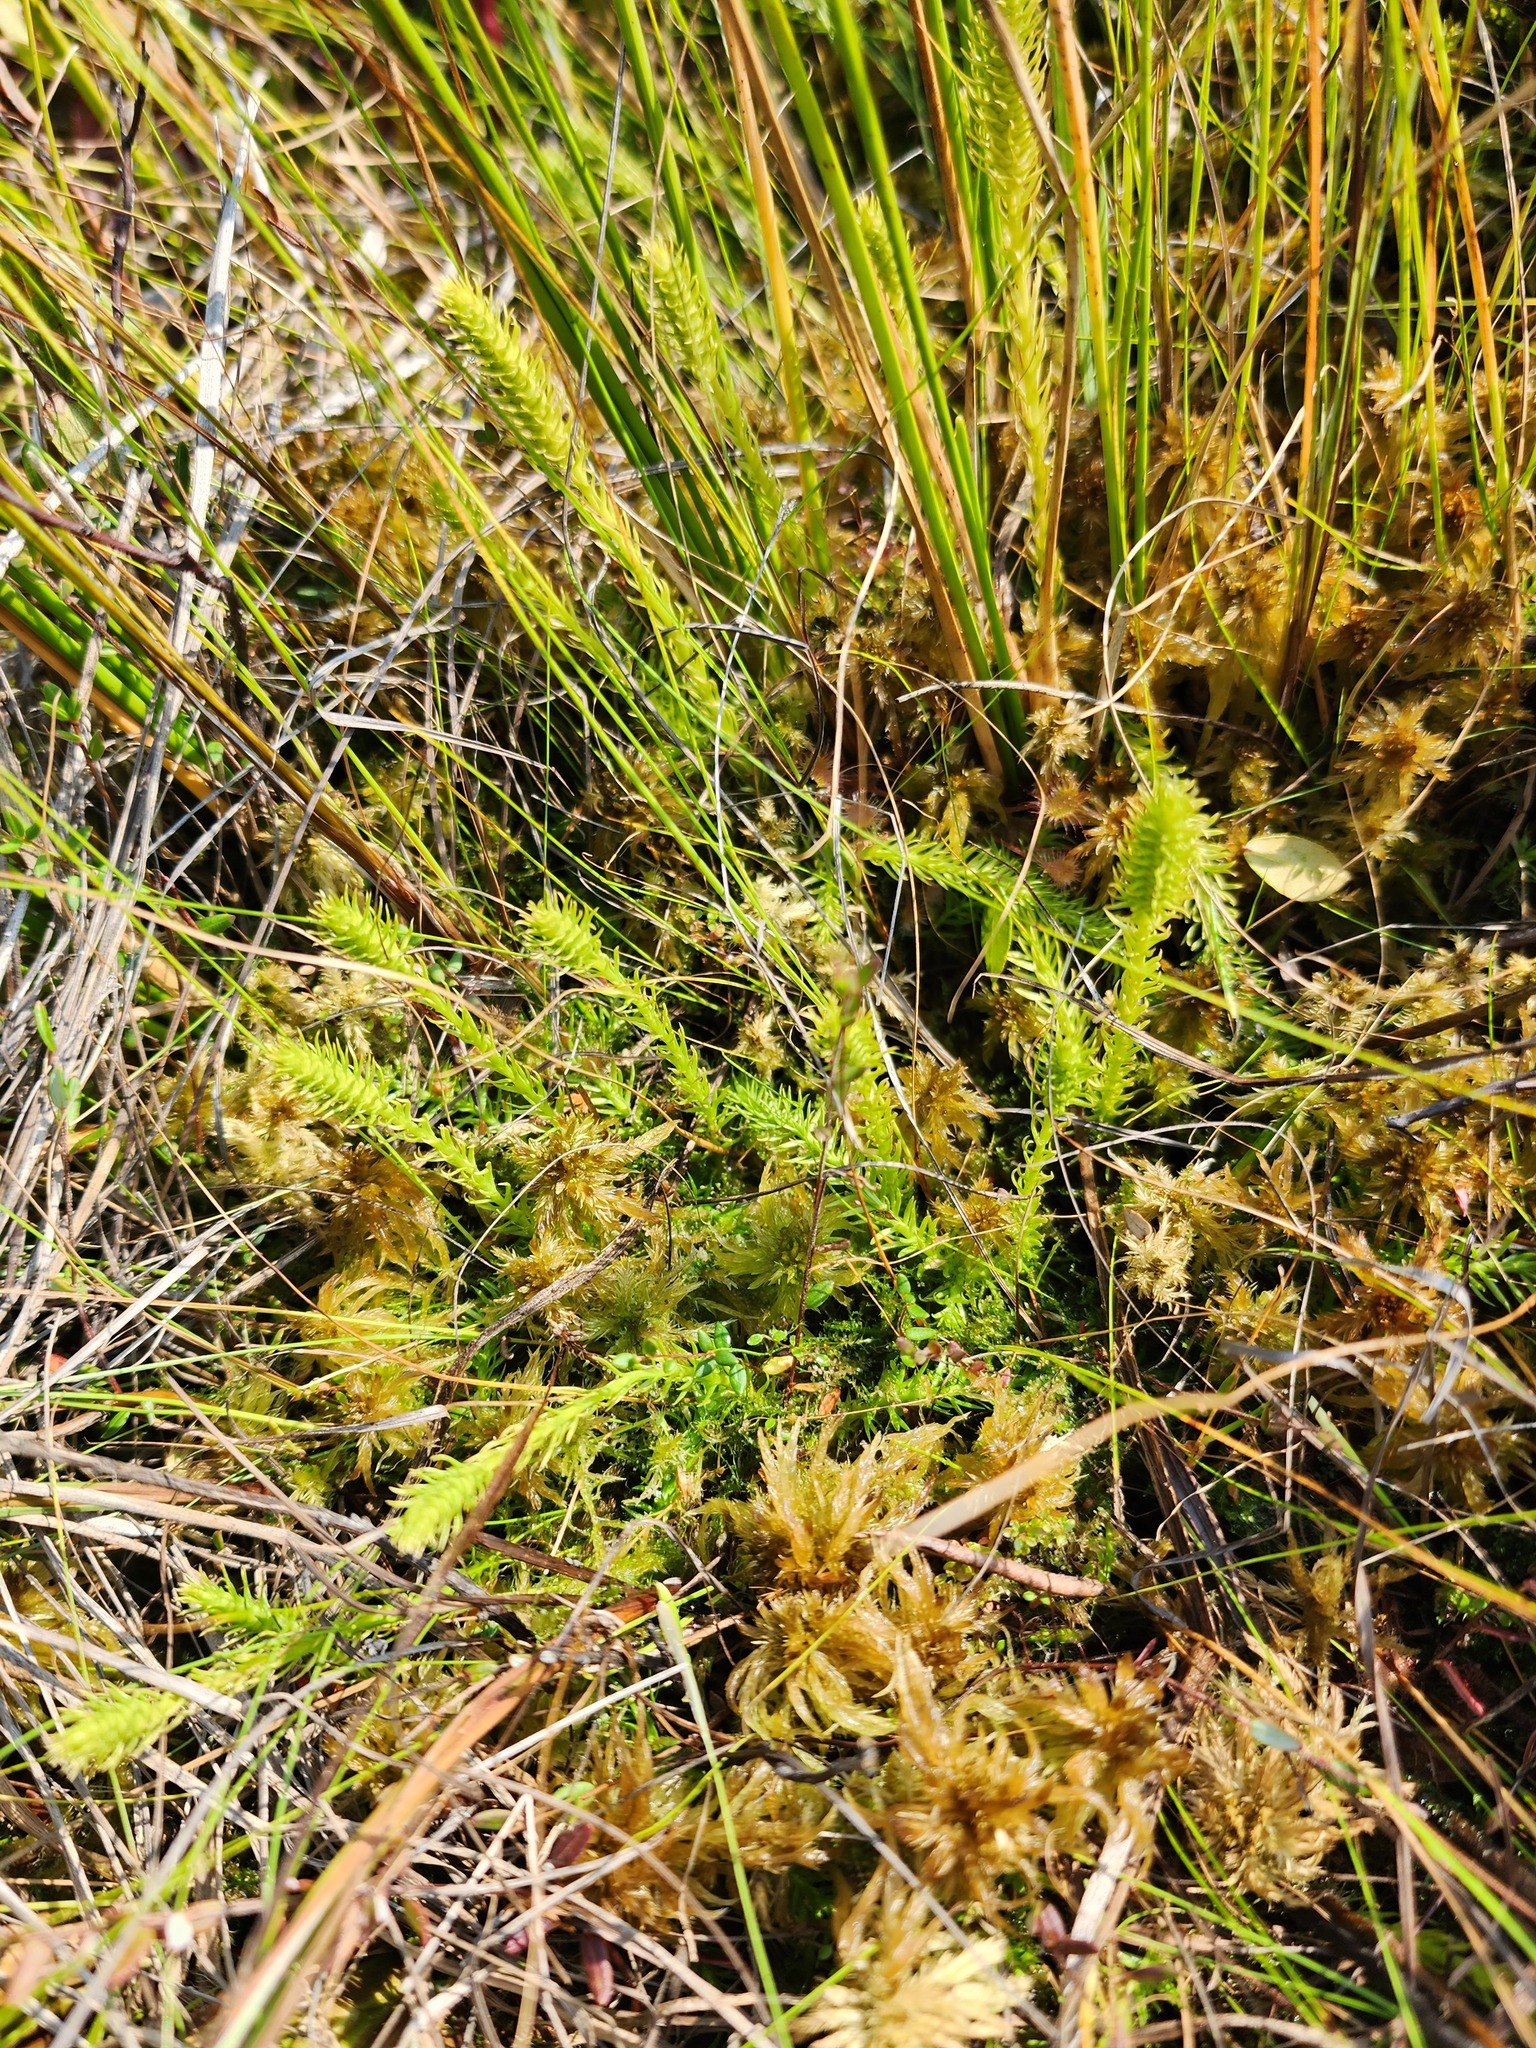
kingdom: Plantae
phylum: Tracheophyta
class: Lycopodiopsida
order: Lycopodiales
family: Lycopodiaceae
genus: Lycopodiella
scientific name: Lycopodiella inundata
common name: Marsh clubmoss
